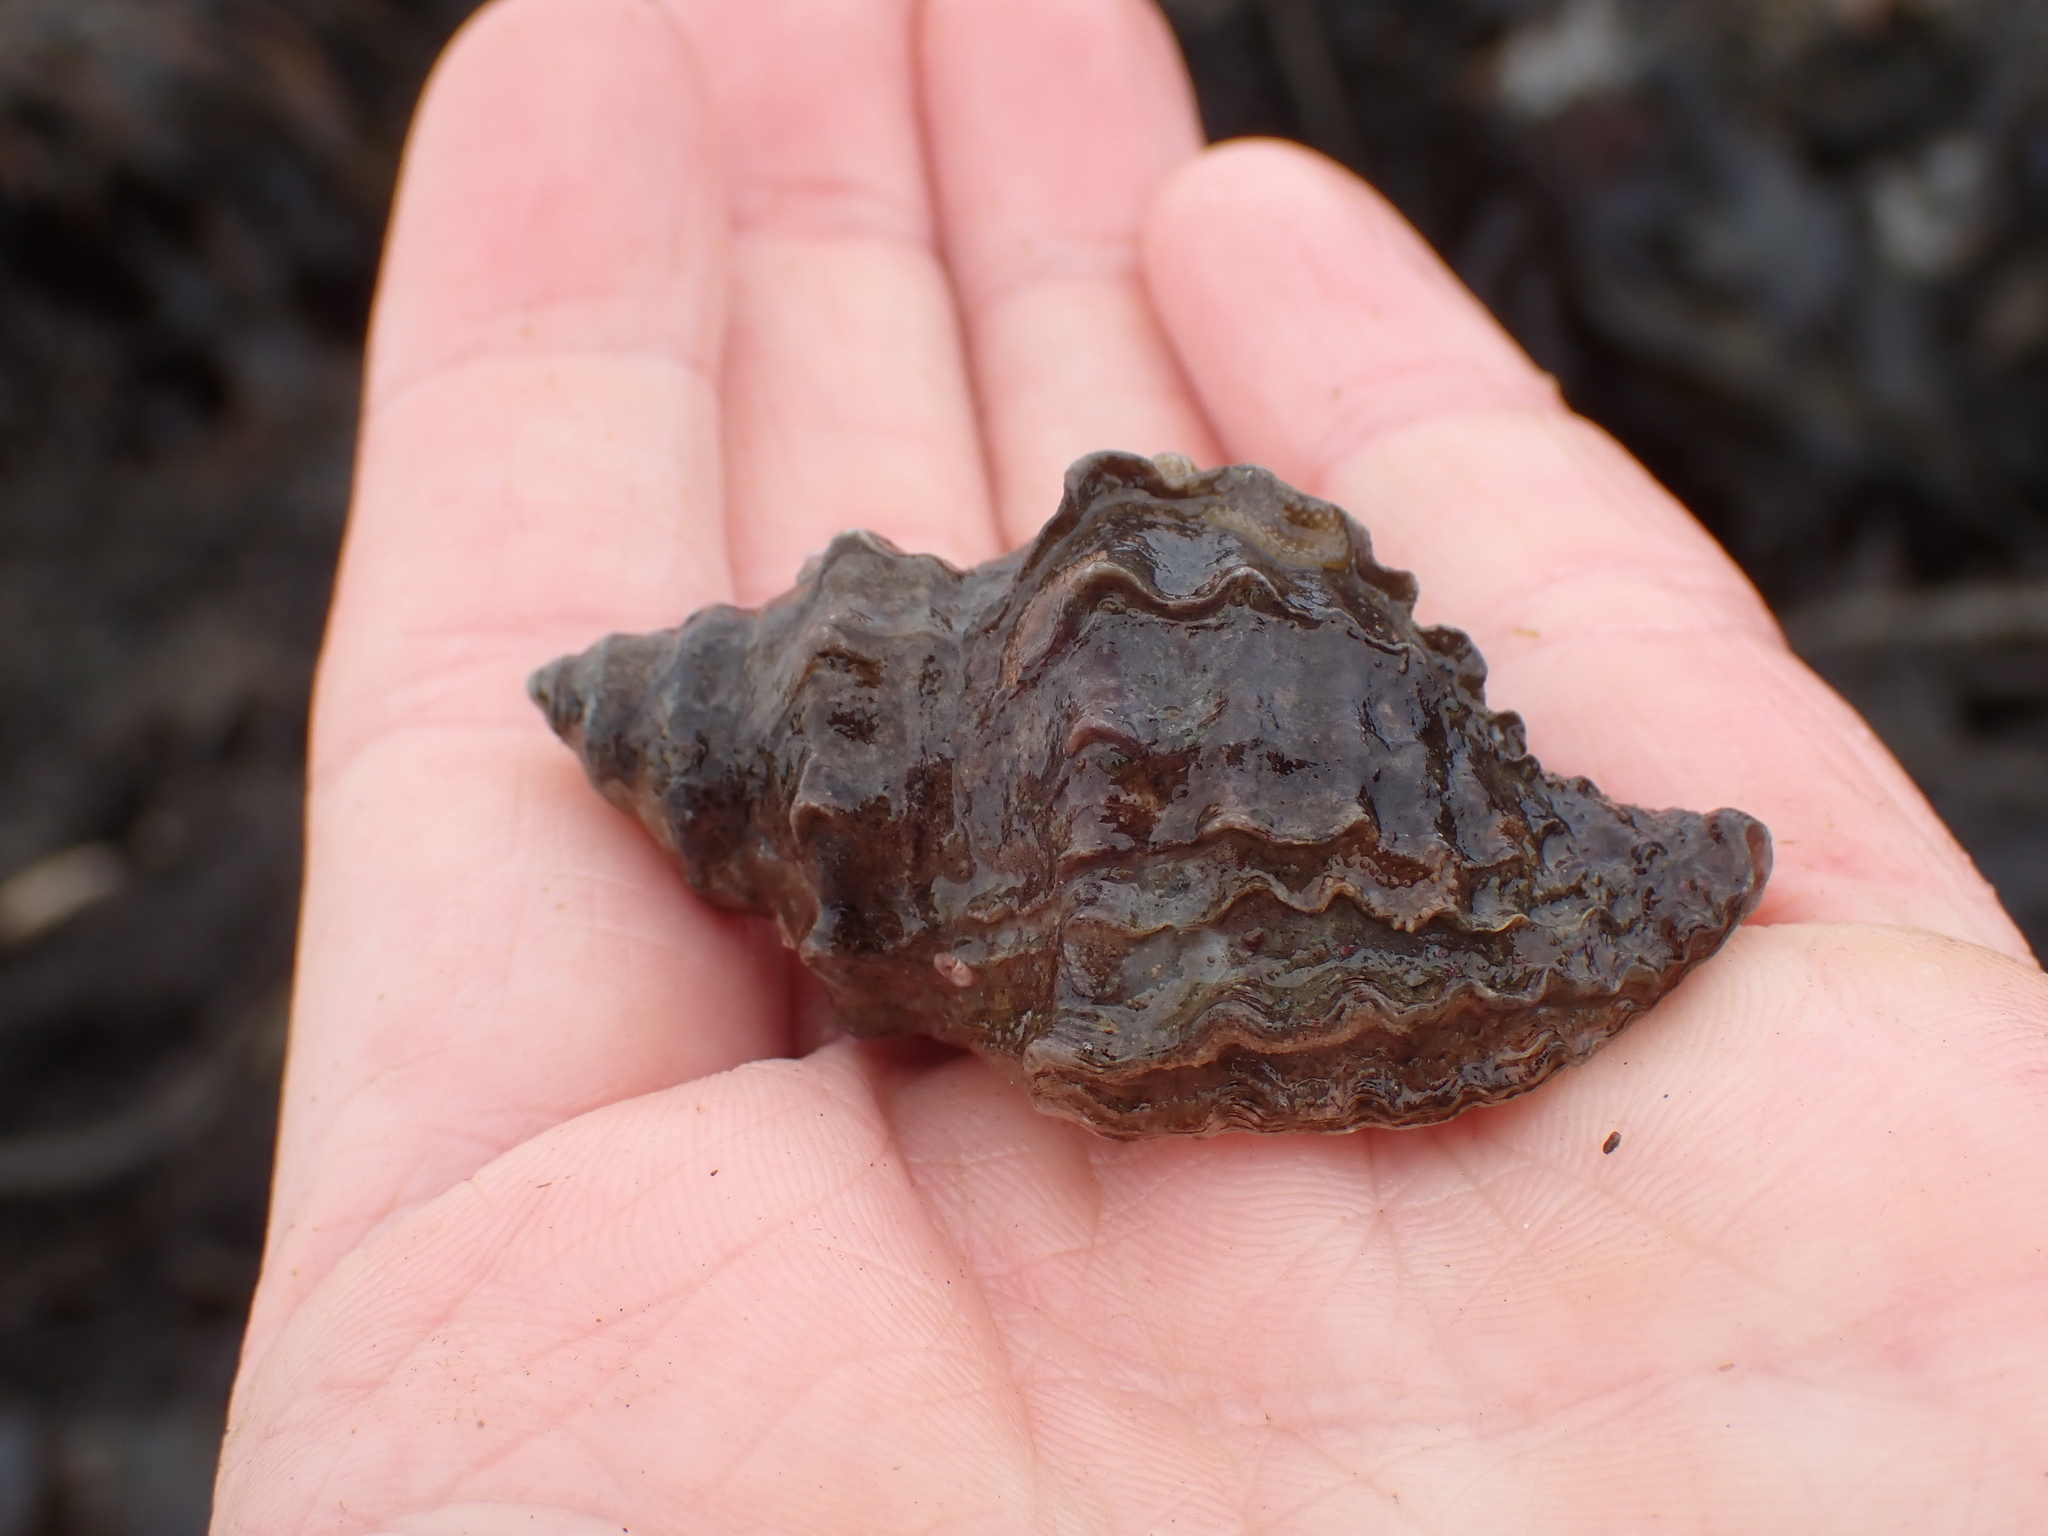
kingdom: Animalia
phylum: Mollusca
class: Gastropoda
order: Neogastropoda
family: Muricidae
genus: Nucella
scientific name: Nucella lamellosa
